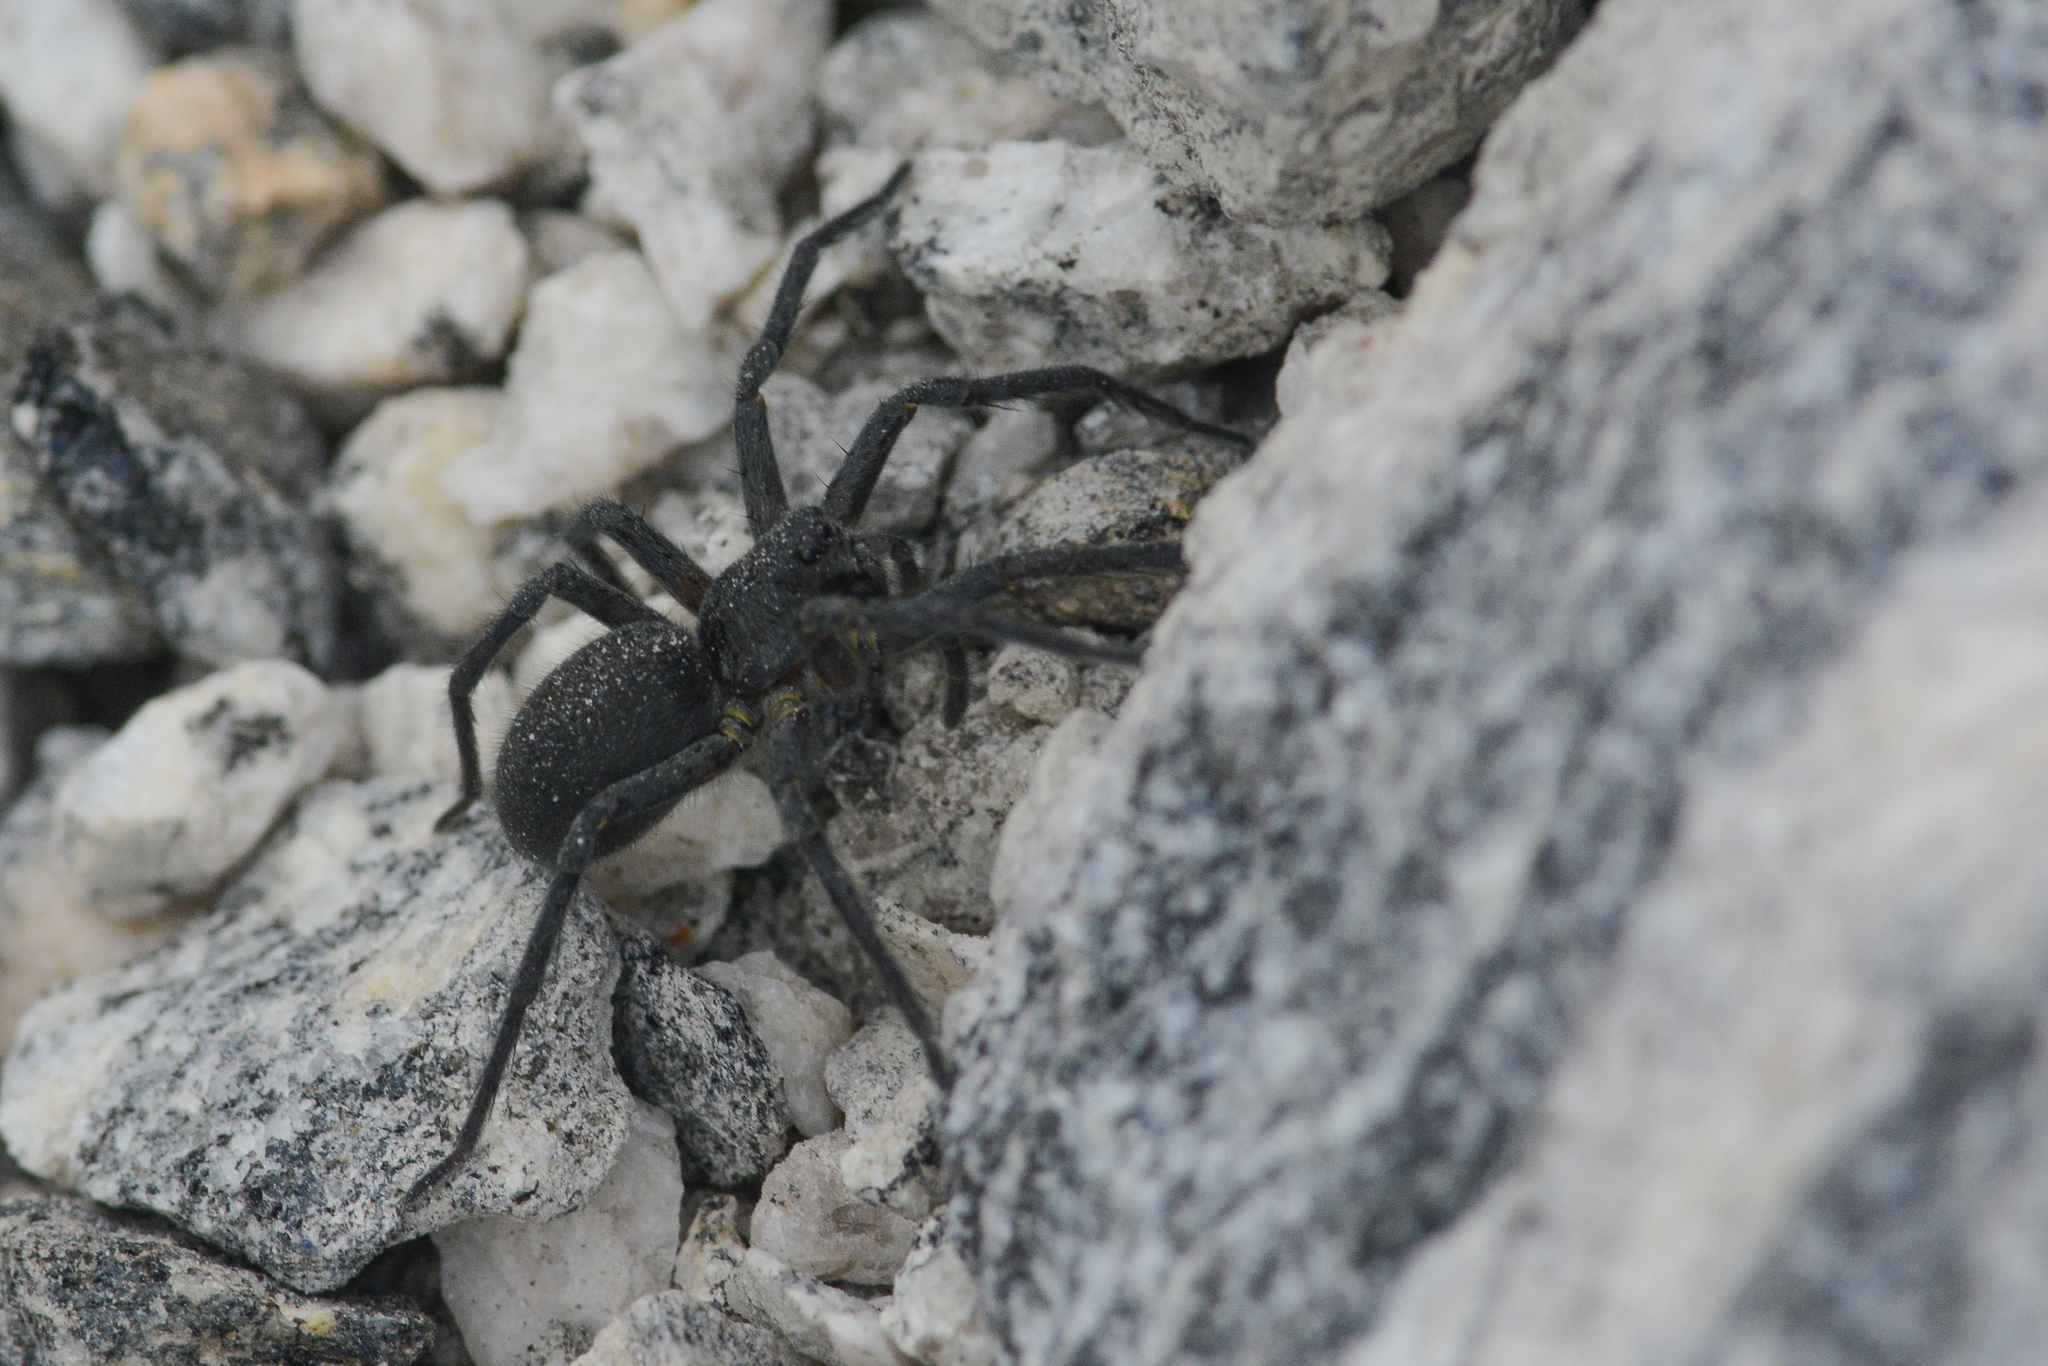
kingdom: Animalia
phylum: Arthropoda
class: Arachnida
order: Araneae
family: Lycosidae
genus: Melocosa
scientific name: Melocosa fumosa
